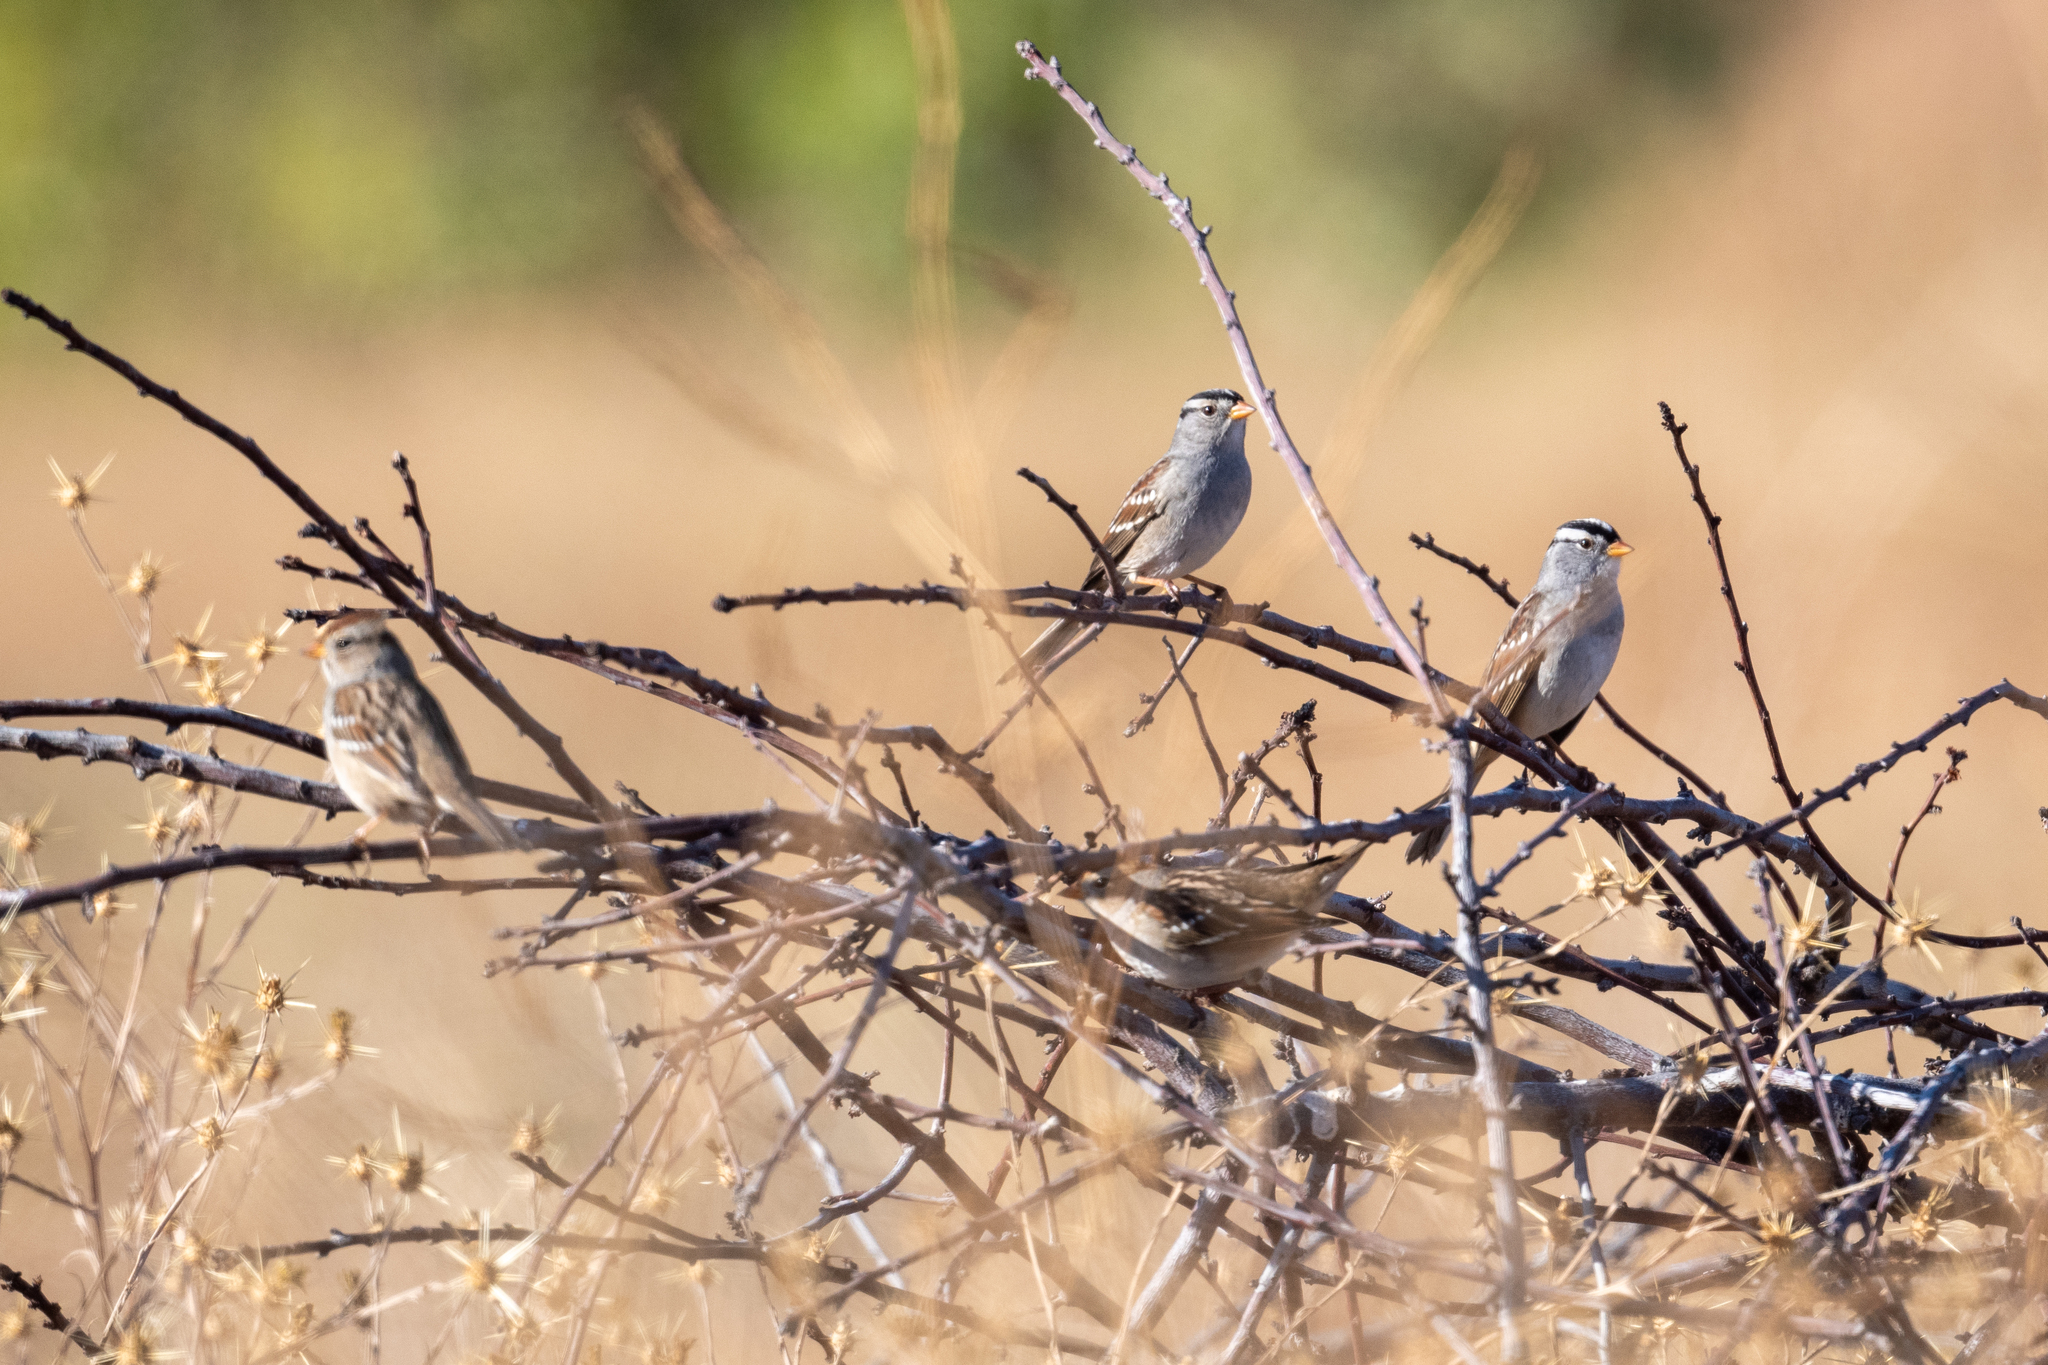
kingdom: Animalia
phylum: Chordata
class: Aves
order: Passeriformes
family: Passerellidae
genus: Zonotrichia
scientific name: Zonotrichia leucophrys
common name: White-crowned sparrow
